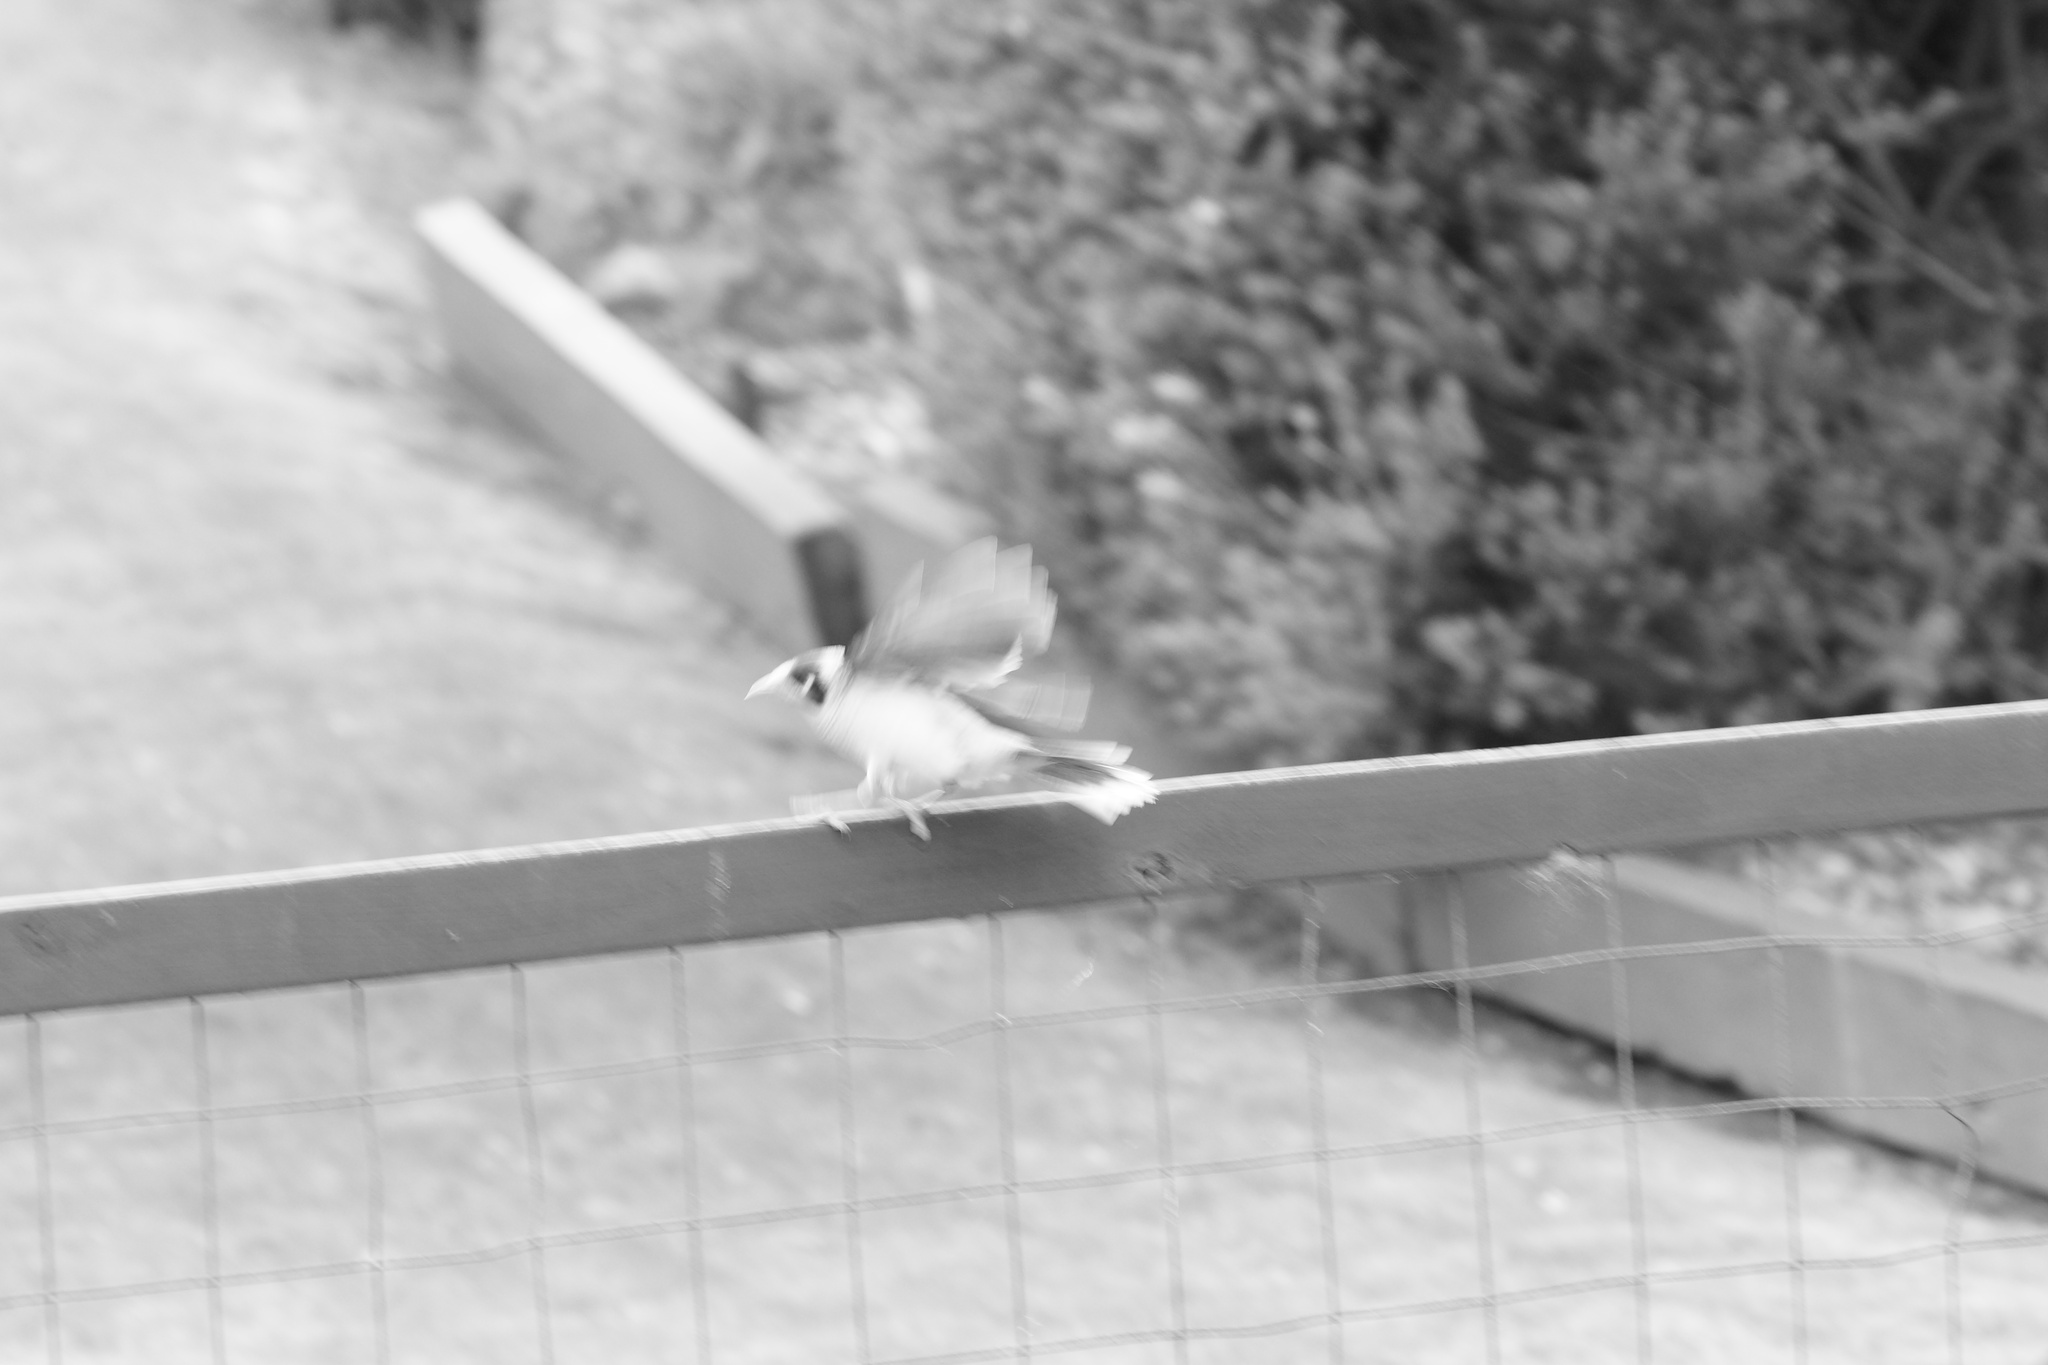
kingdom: Animalia
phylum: Chordata
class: Aves
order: Passeriformes
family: Meliphagidae
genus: Manorina
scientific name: Manorina melanocephala
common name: Noisy miner
